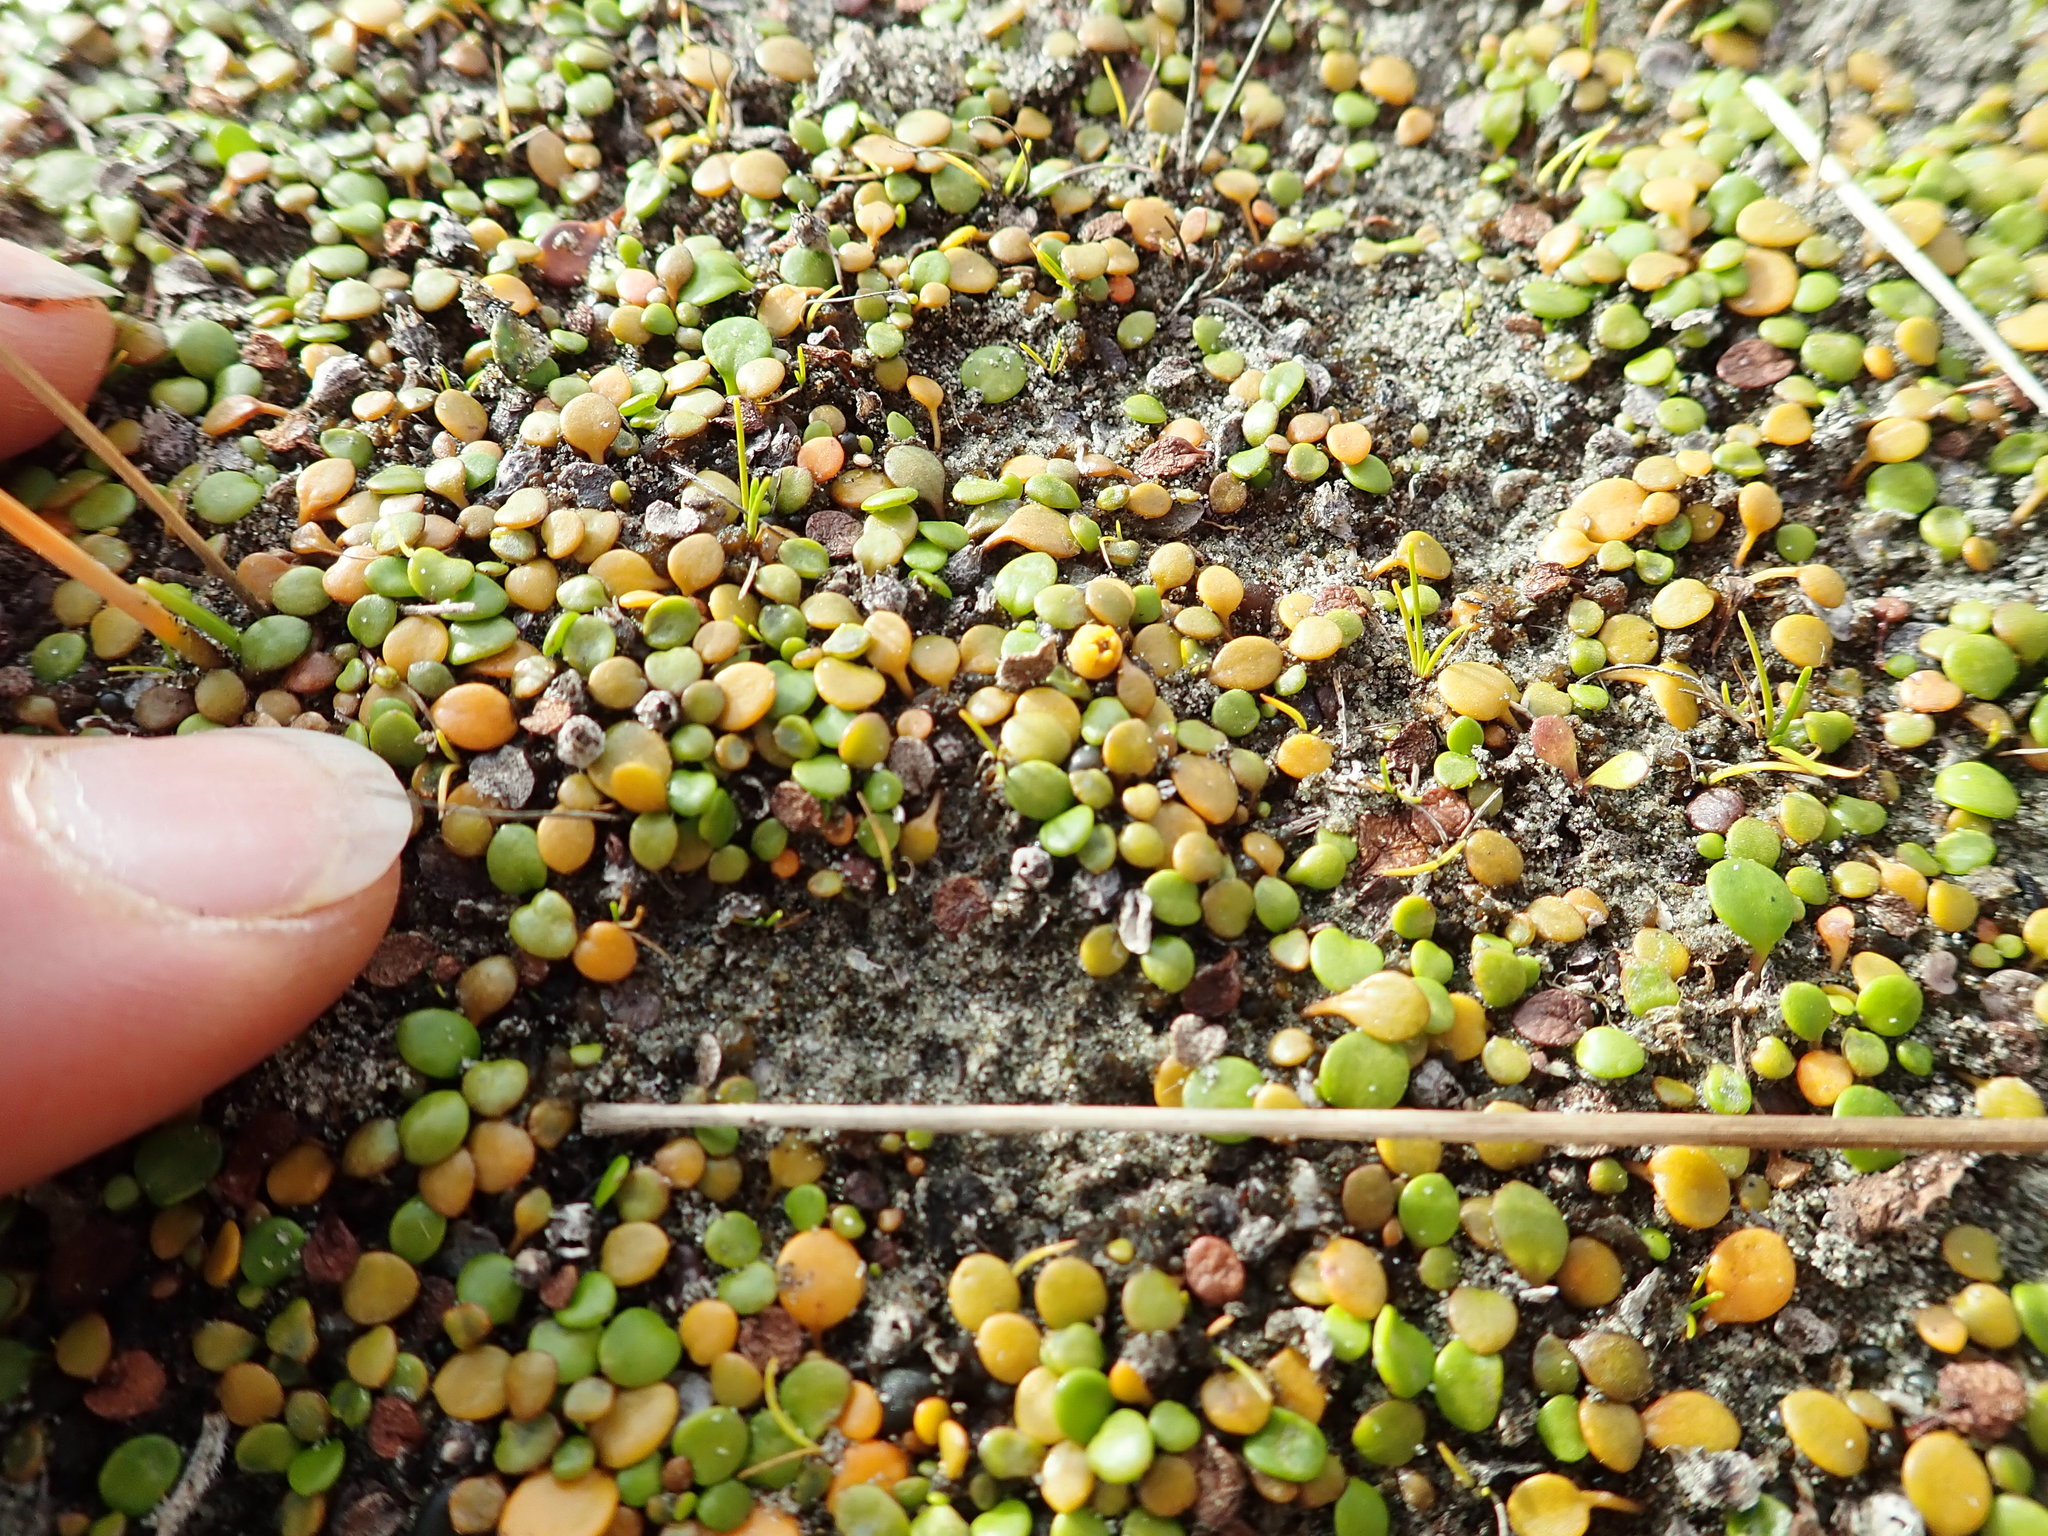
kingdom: Plantae
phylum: Tracheophyta
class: Magnoliopsida
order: Asterales
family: Goodeniaceae
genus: Goodenia
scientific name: Goodenia heenanii
